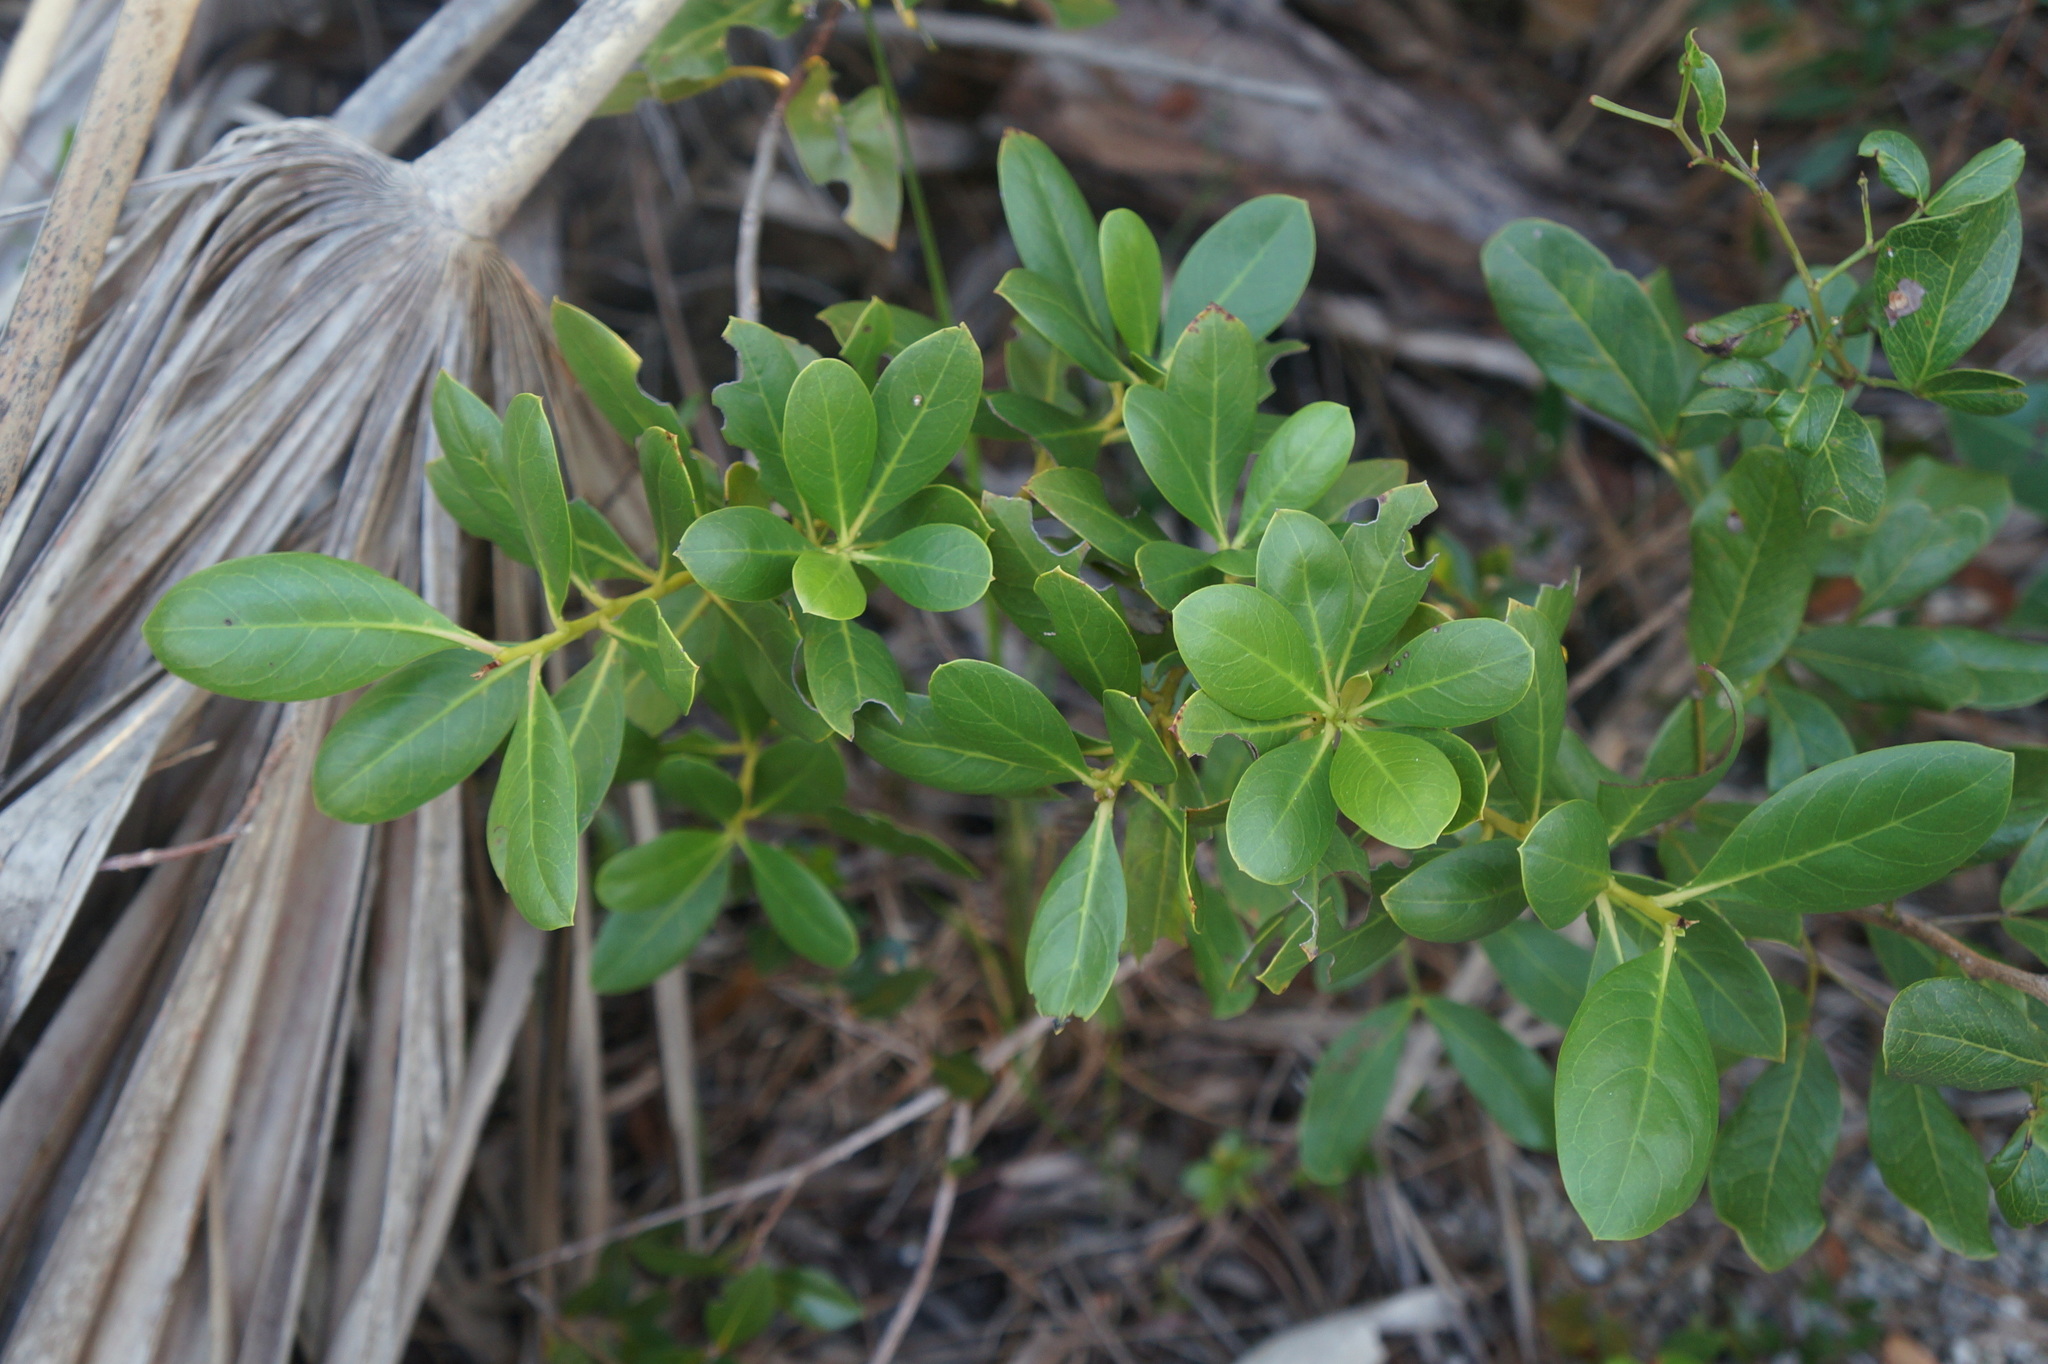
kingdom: Plantae
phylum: Tracheophyta
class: Magnoliopsida
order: Myrtales
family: Combretaceae
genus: Conocarpus
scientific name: Conocarpus erectus
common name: Button mangrove
